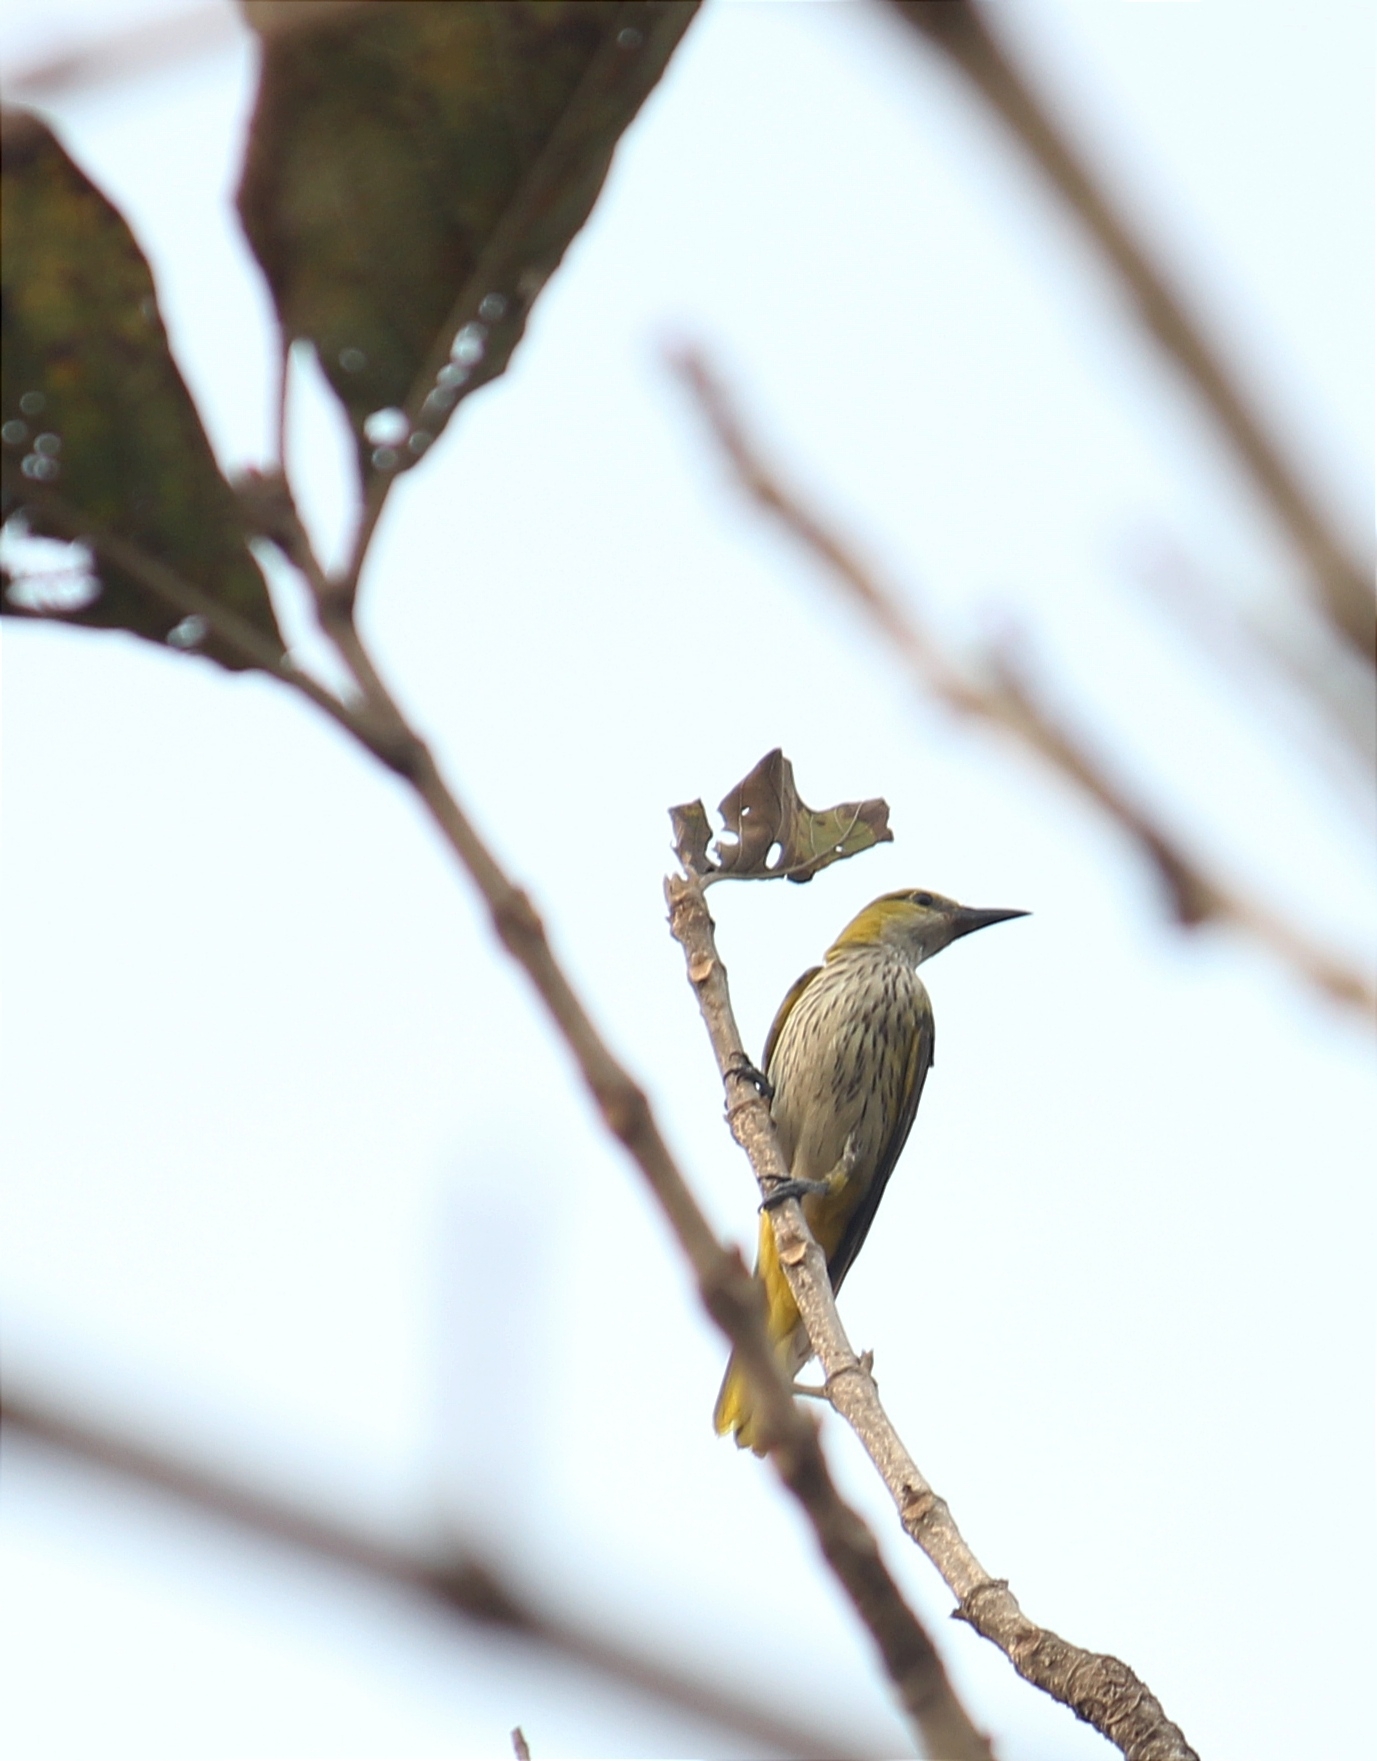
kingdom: Animalia
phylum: Chordata
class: Aves
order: Passeriformes
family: Oriolidae
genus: Oriolus
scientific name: Oriolus kundoo
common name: Indian golden oriole
